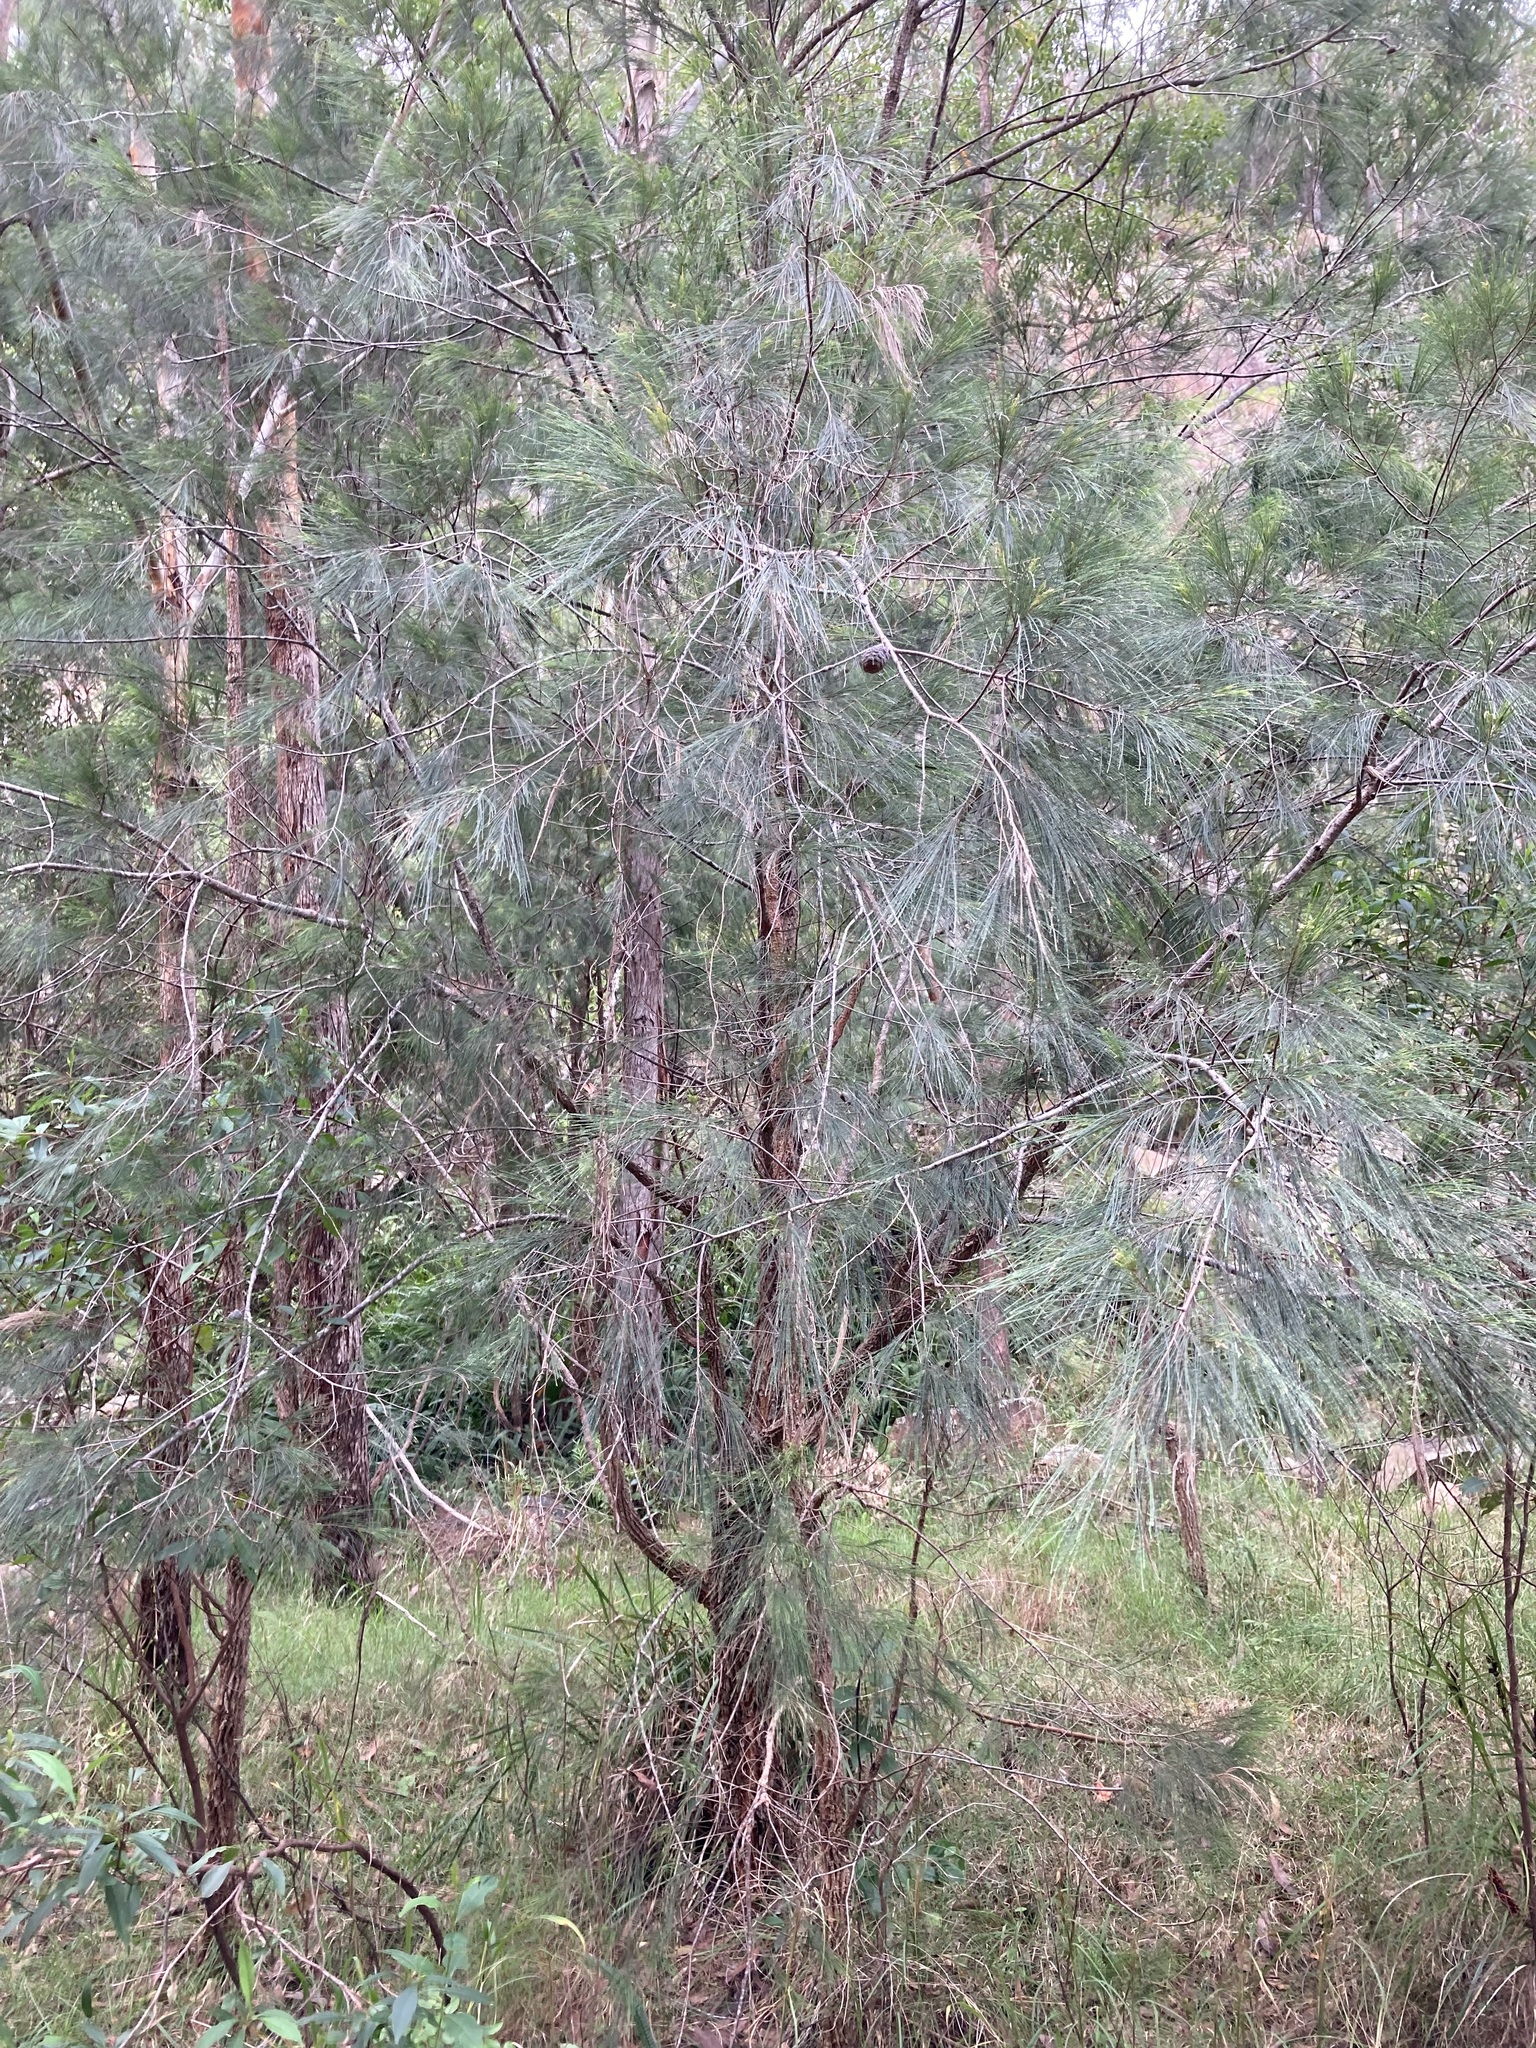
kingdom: Plantae
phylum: Tracheophyta
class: Magnoliopsida
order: Fagales
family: Casuarinaceae
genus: Allocasuarina
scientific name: Allocasuarina torulosa
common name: Forest-oak
